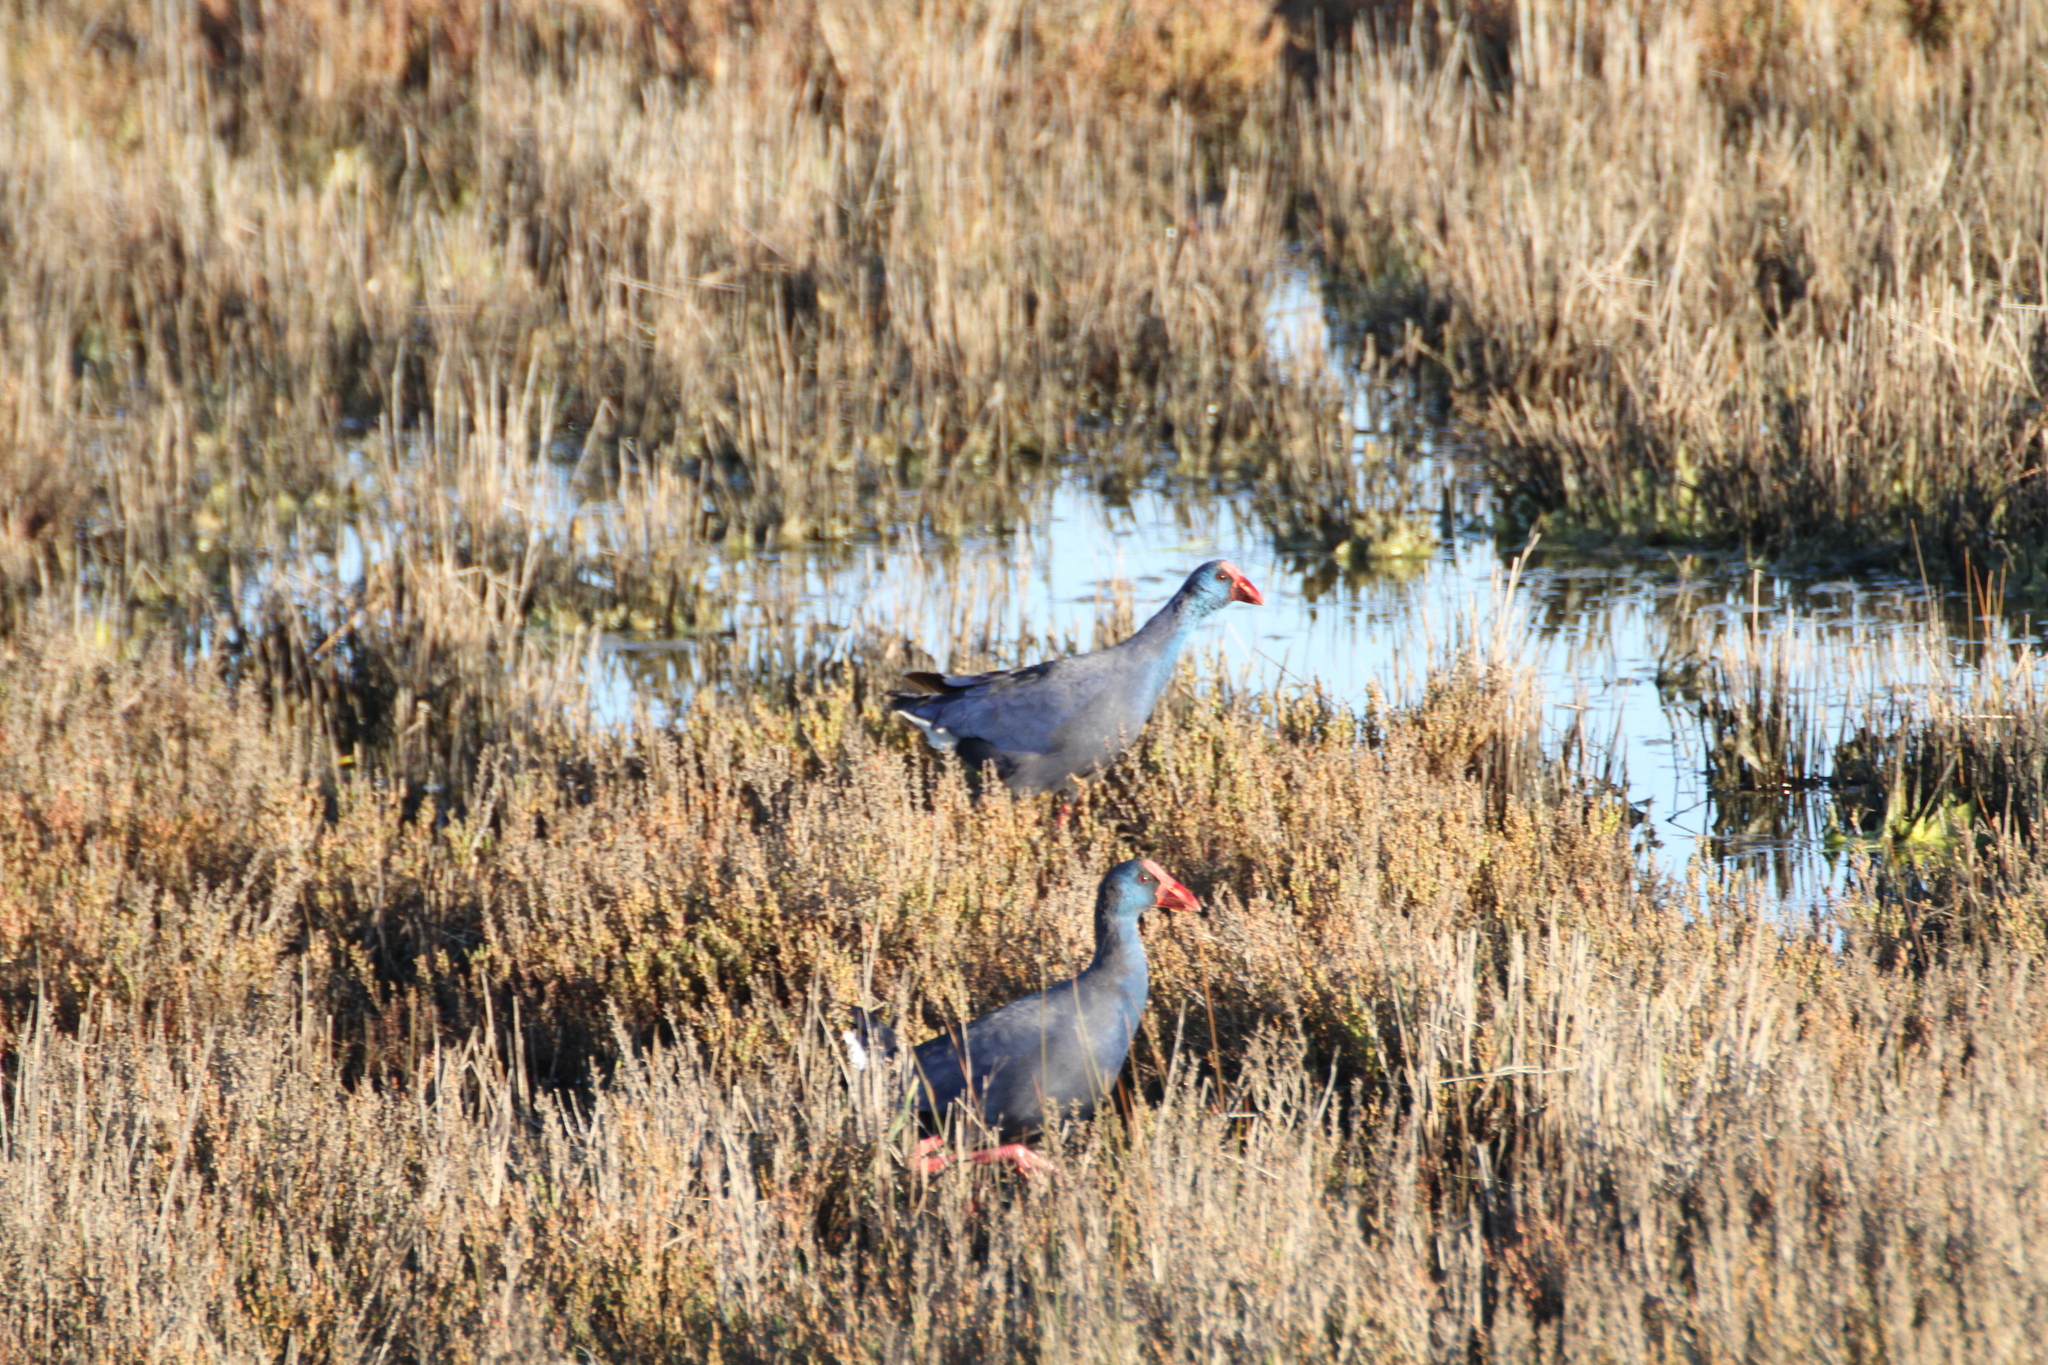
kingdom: Animalia
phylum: Chordata
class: Aves
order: Gruiformes
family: Rallidae
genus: Porphyrio
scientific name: Porphyrio porphyrio
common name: Purple swamphen
